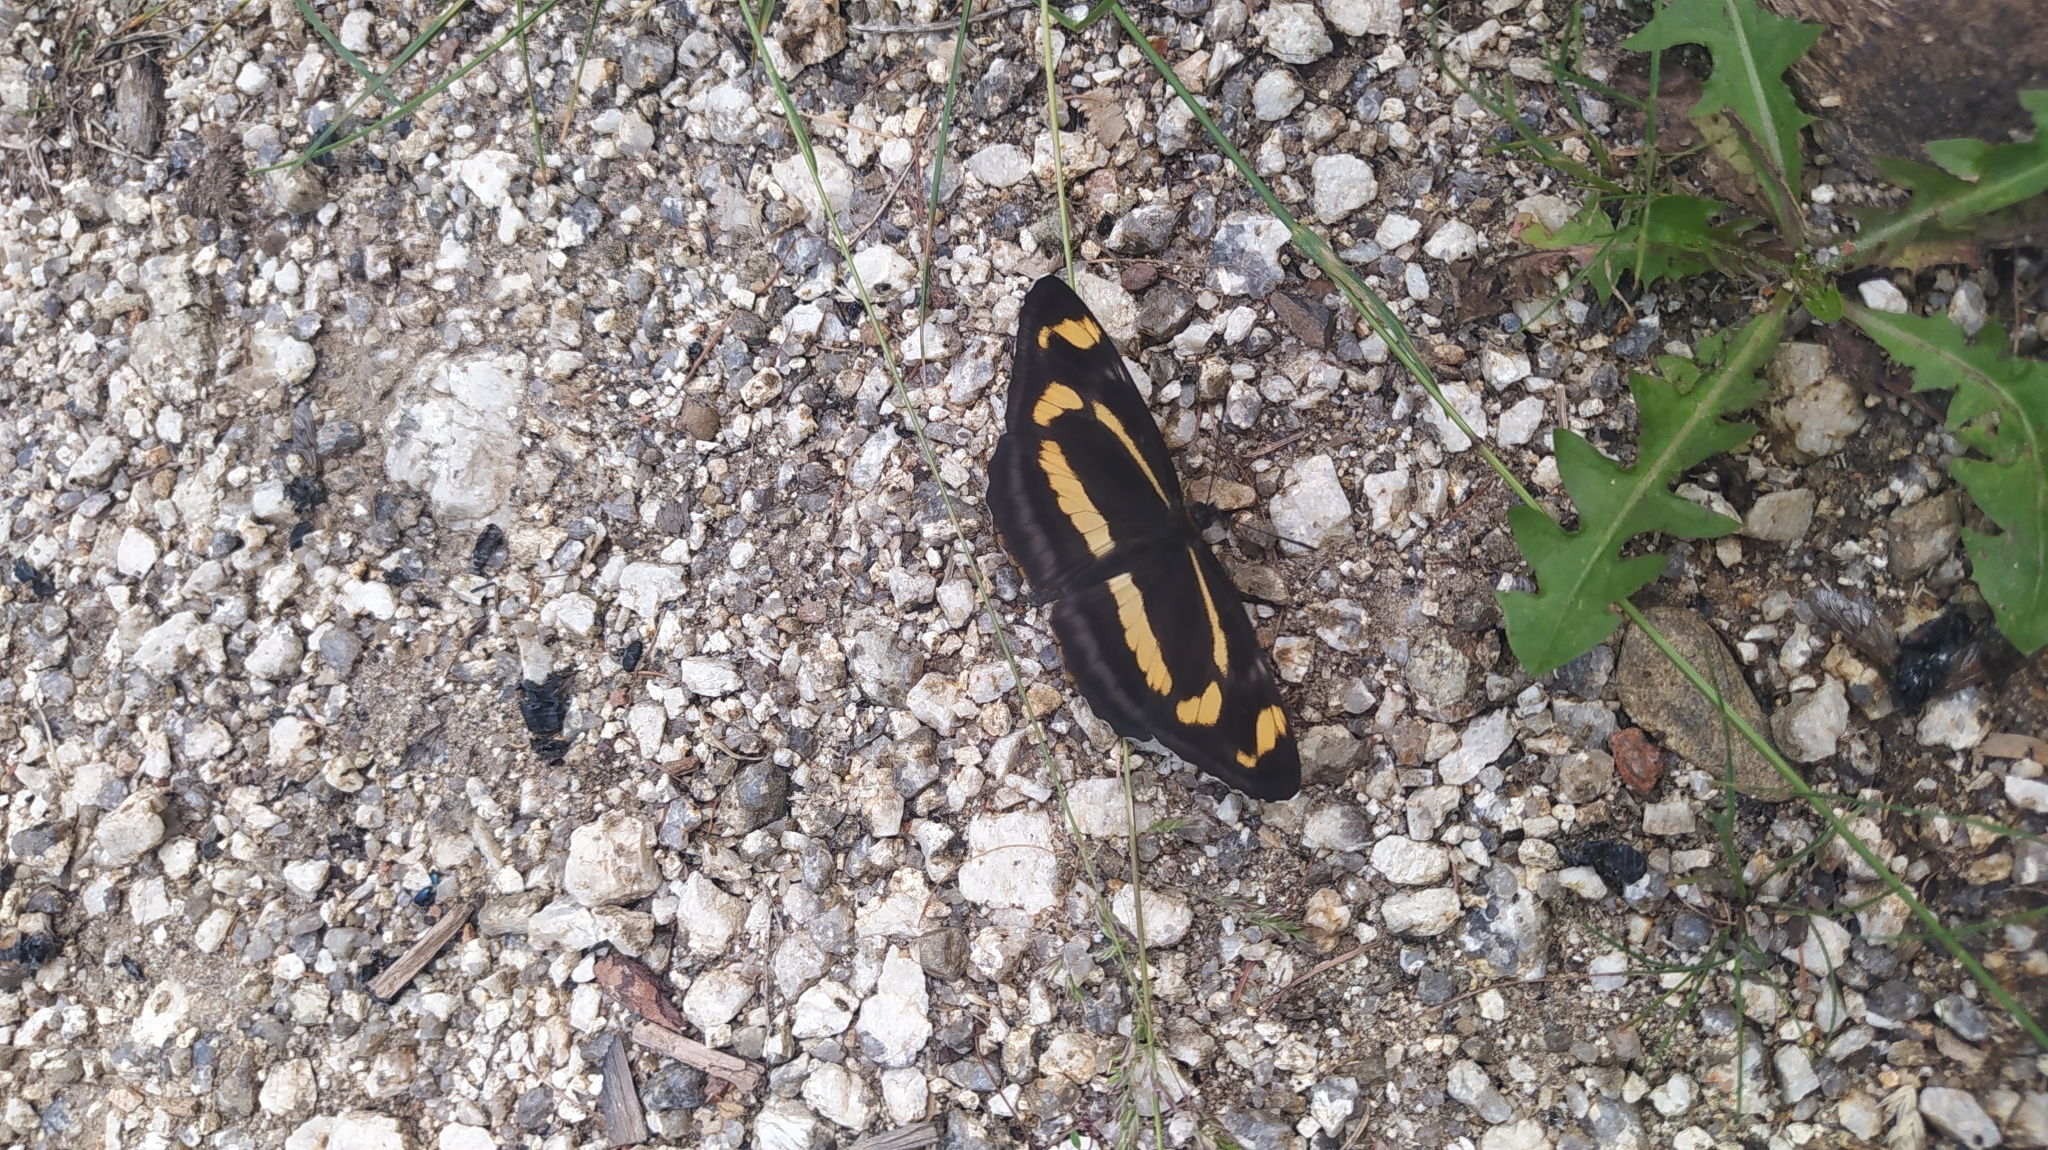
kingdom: Animalia
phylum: Arthropoda
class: Insecta
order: Lepidoptera
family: Nymphalidae
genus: Neptis
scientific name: Neptis tshetverikovi
